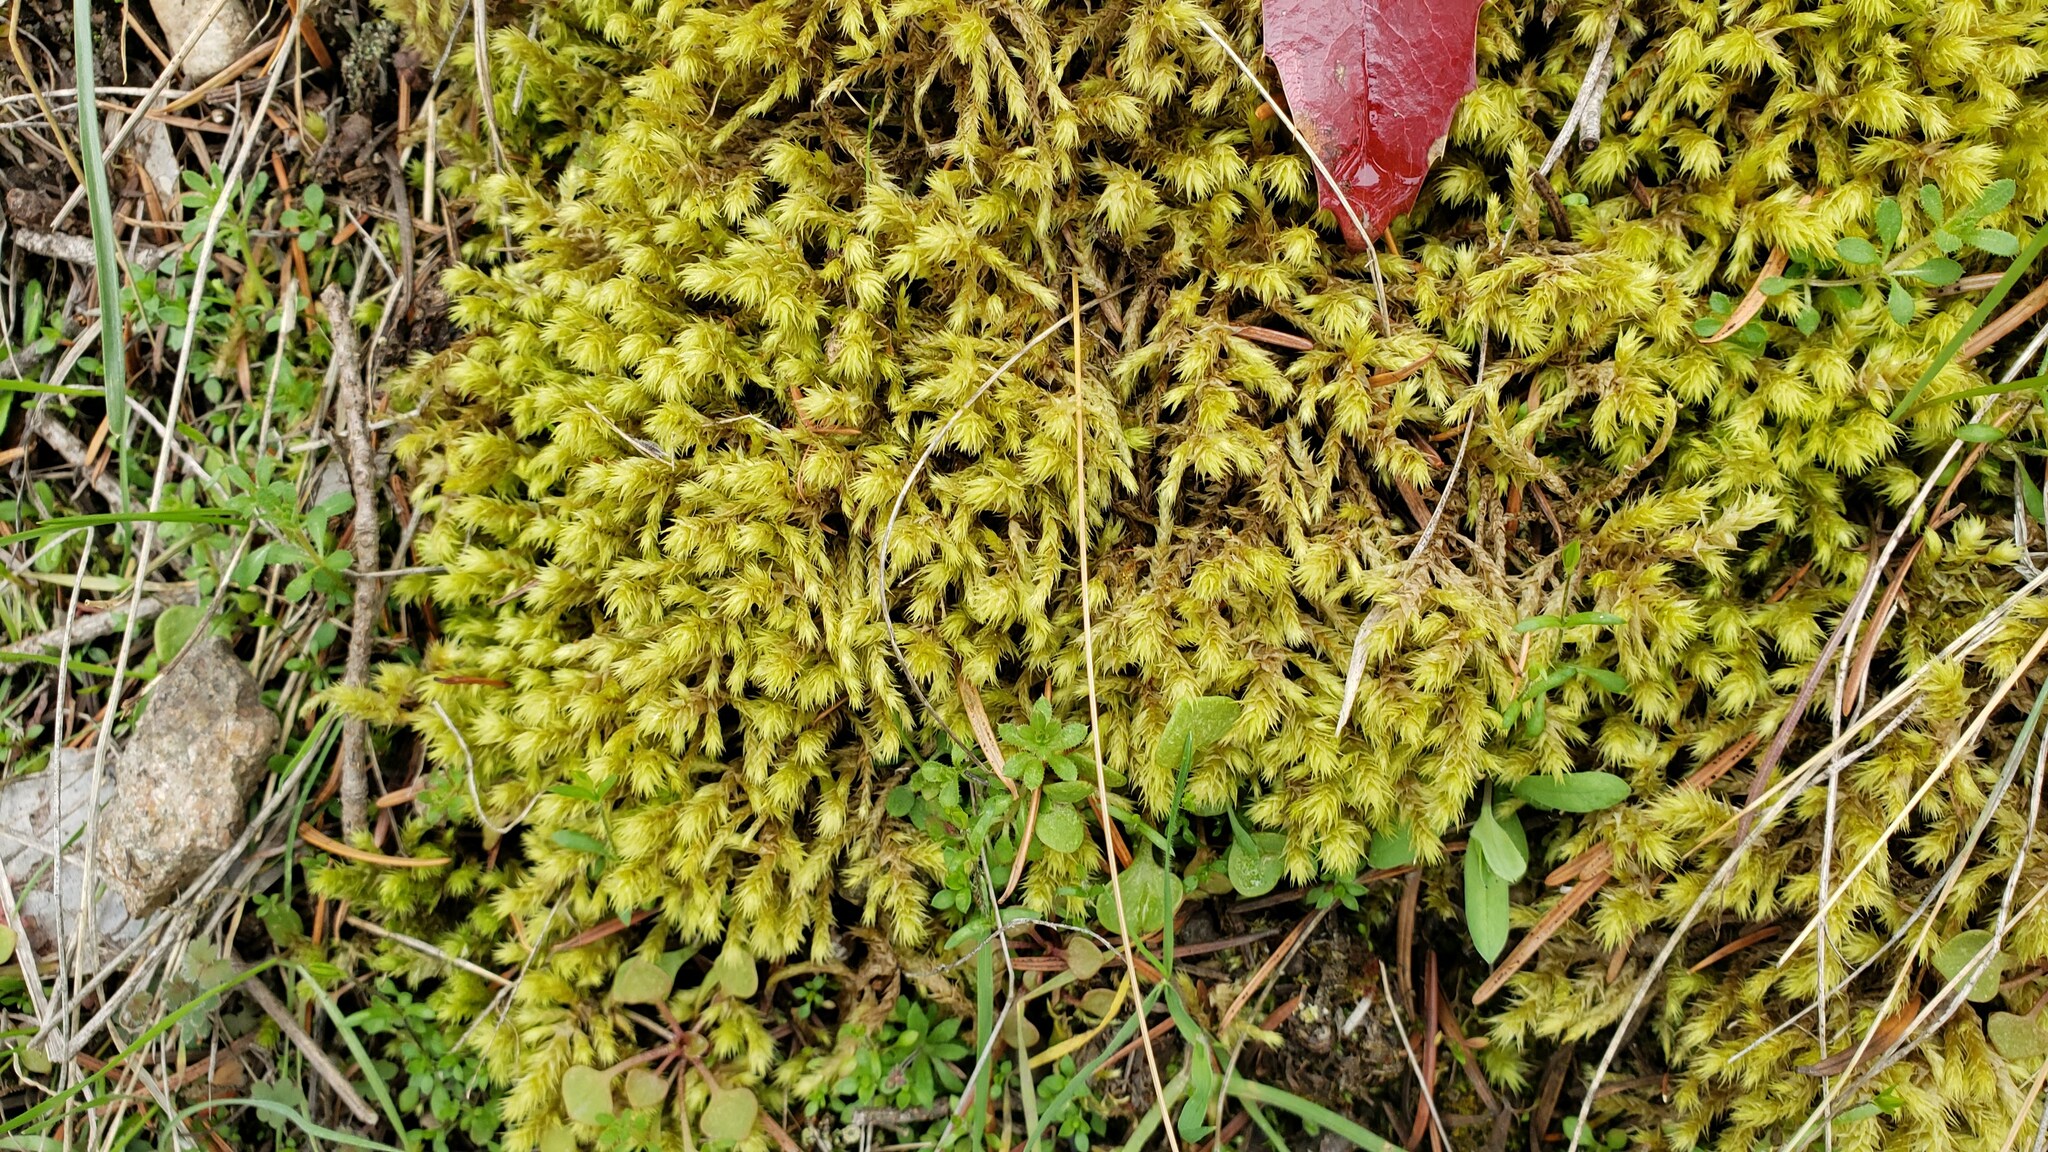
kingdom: Plantae
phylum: Bryophyta
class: Bryopsida
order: Hypnales
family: Hylocomiaceae
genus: Hylocomiadelphus
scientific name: Hylocomiadelphus triquetrus
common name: Rough goose neck moss
